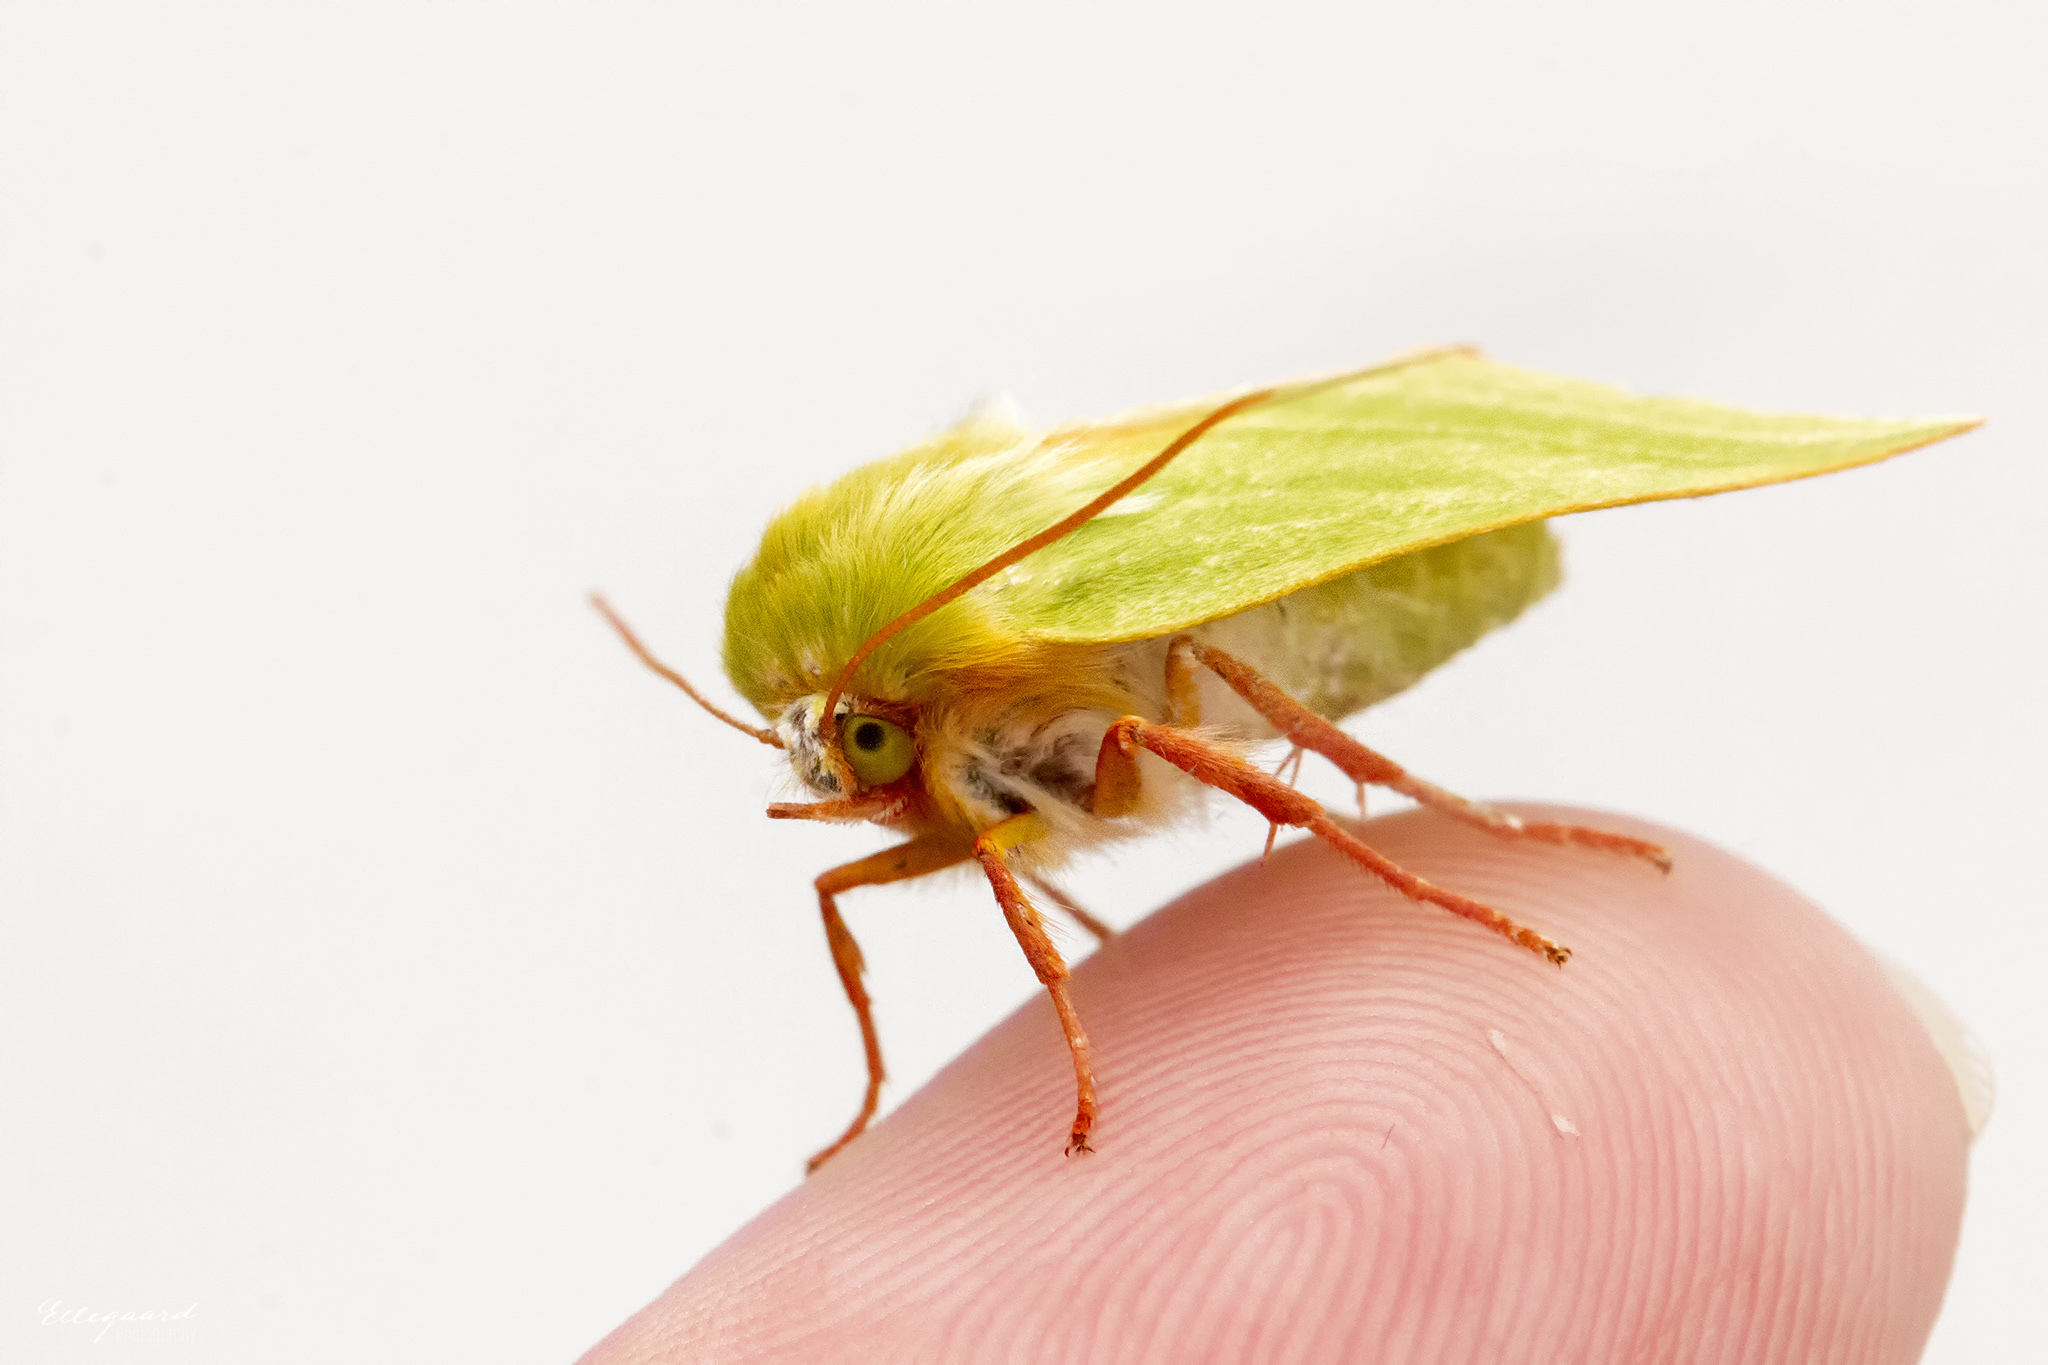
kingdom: Animalia
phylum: Arthropoda
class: Insecta
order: Lepidoptera
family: Nolidae
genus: Pseudoips
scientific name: Pseudoips prasinana
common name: Green silver-lines
